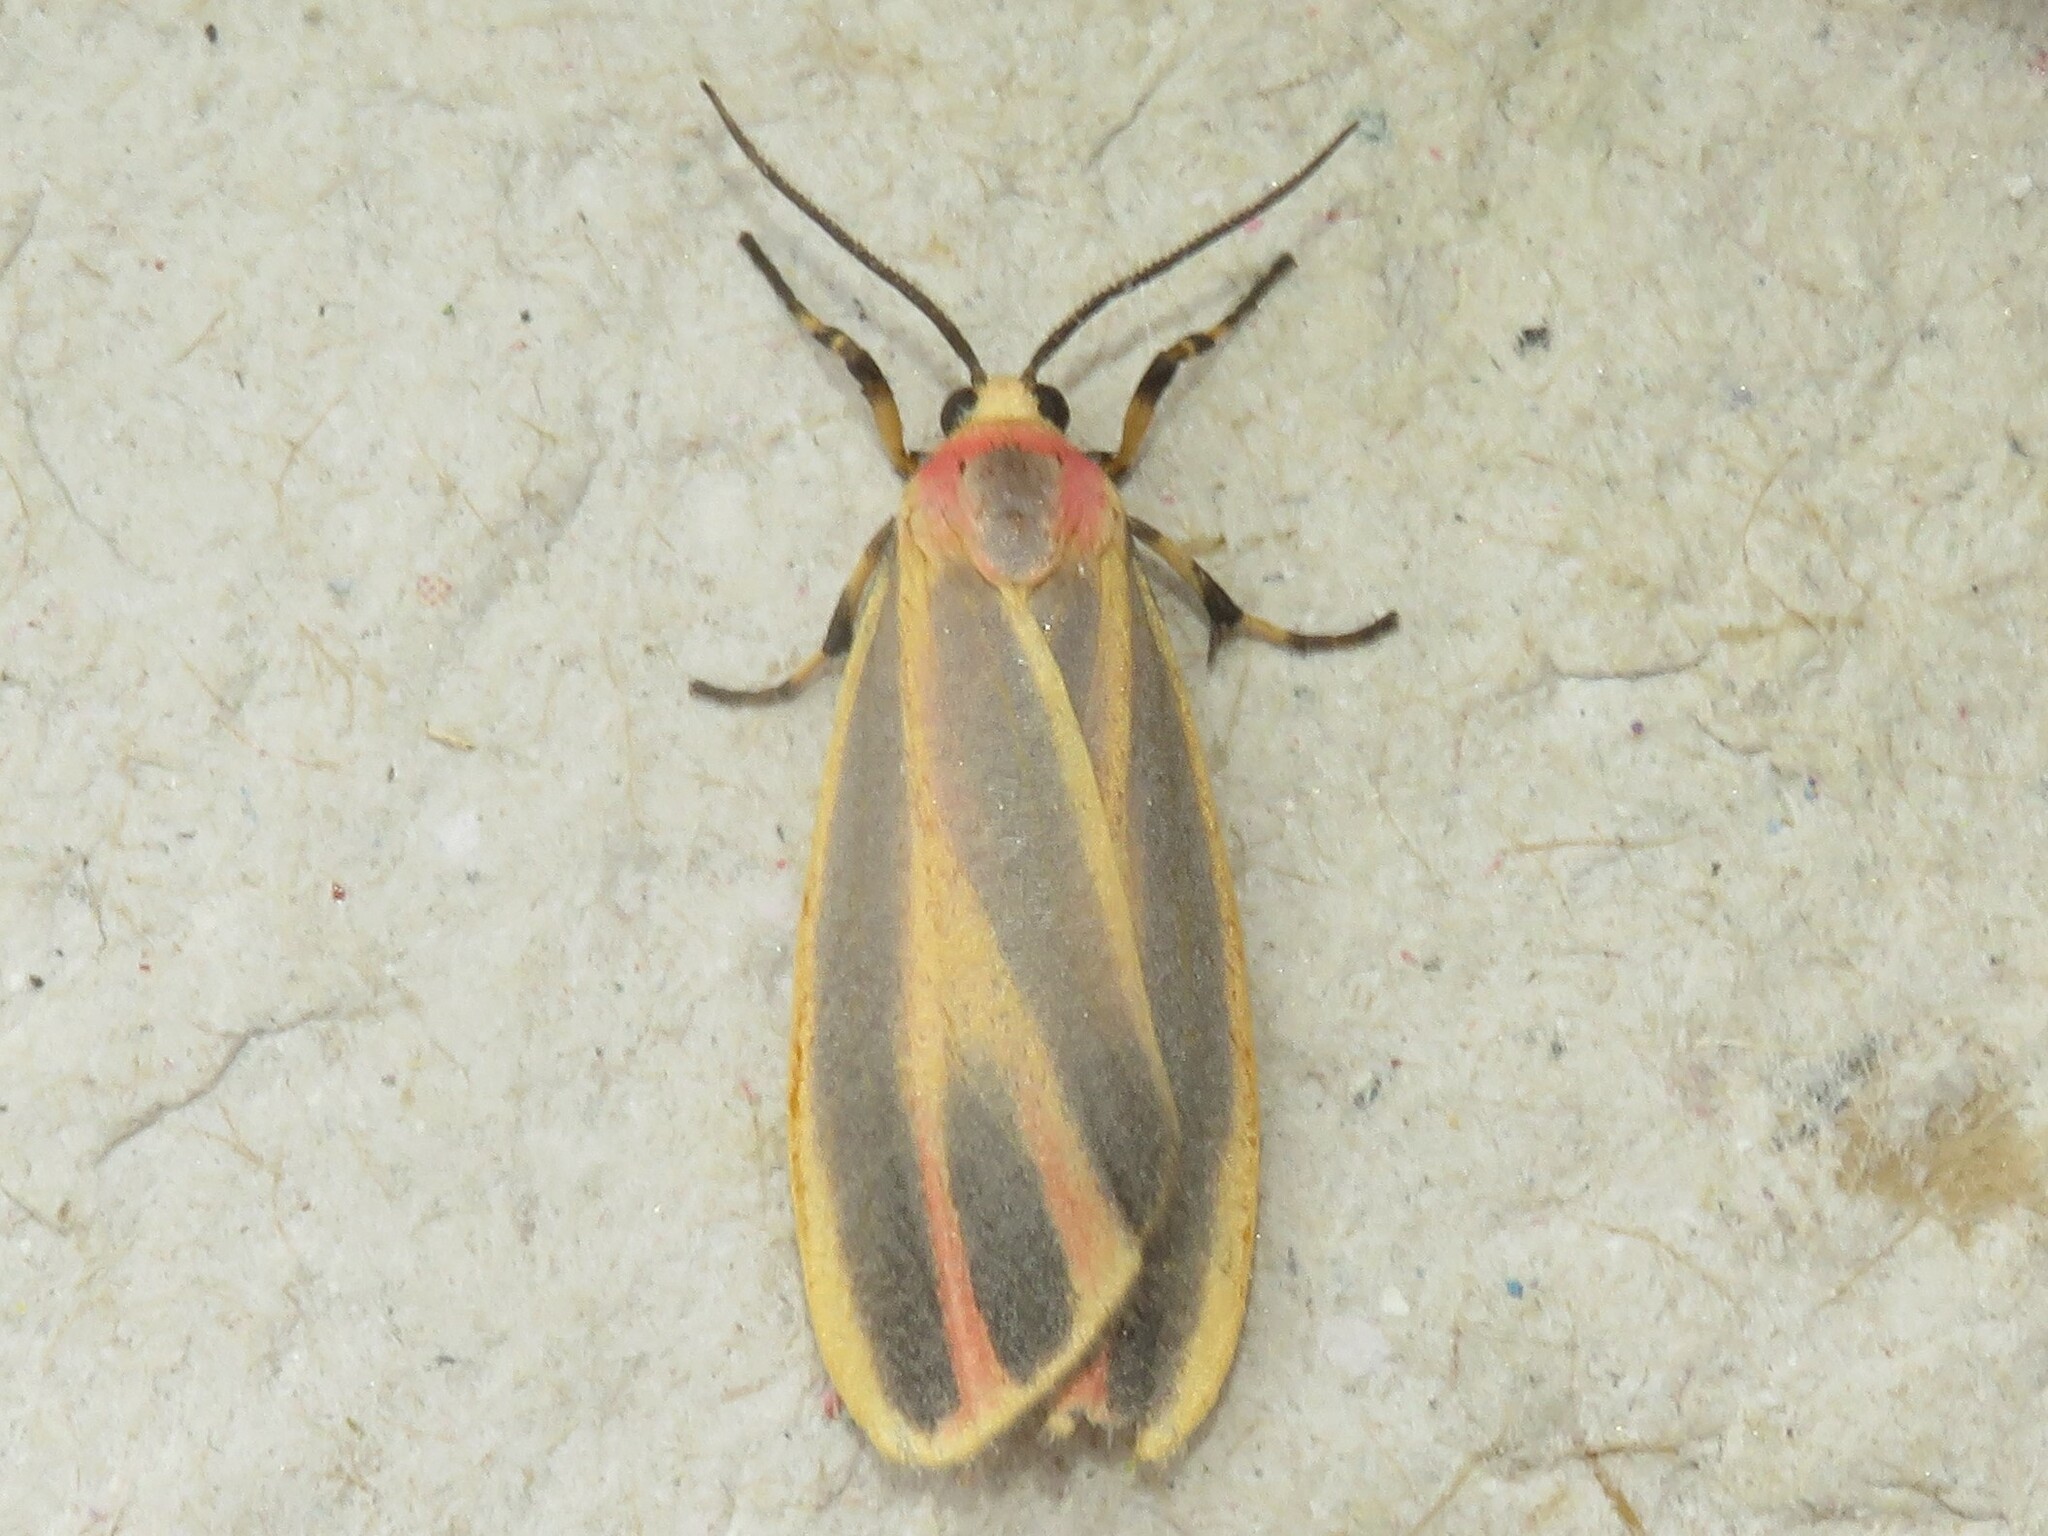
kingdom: Animalia
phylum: Arthropoda
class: Insecta
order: Lepidoptera
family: Erebidae
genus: Hypoprepia
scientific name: Hypoprepia fucosa
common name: Painted lichen moth
